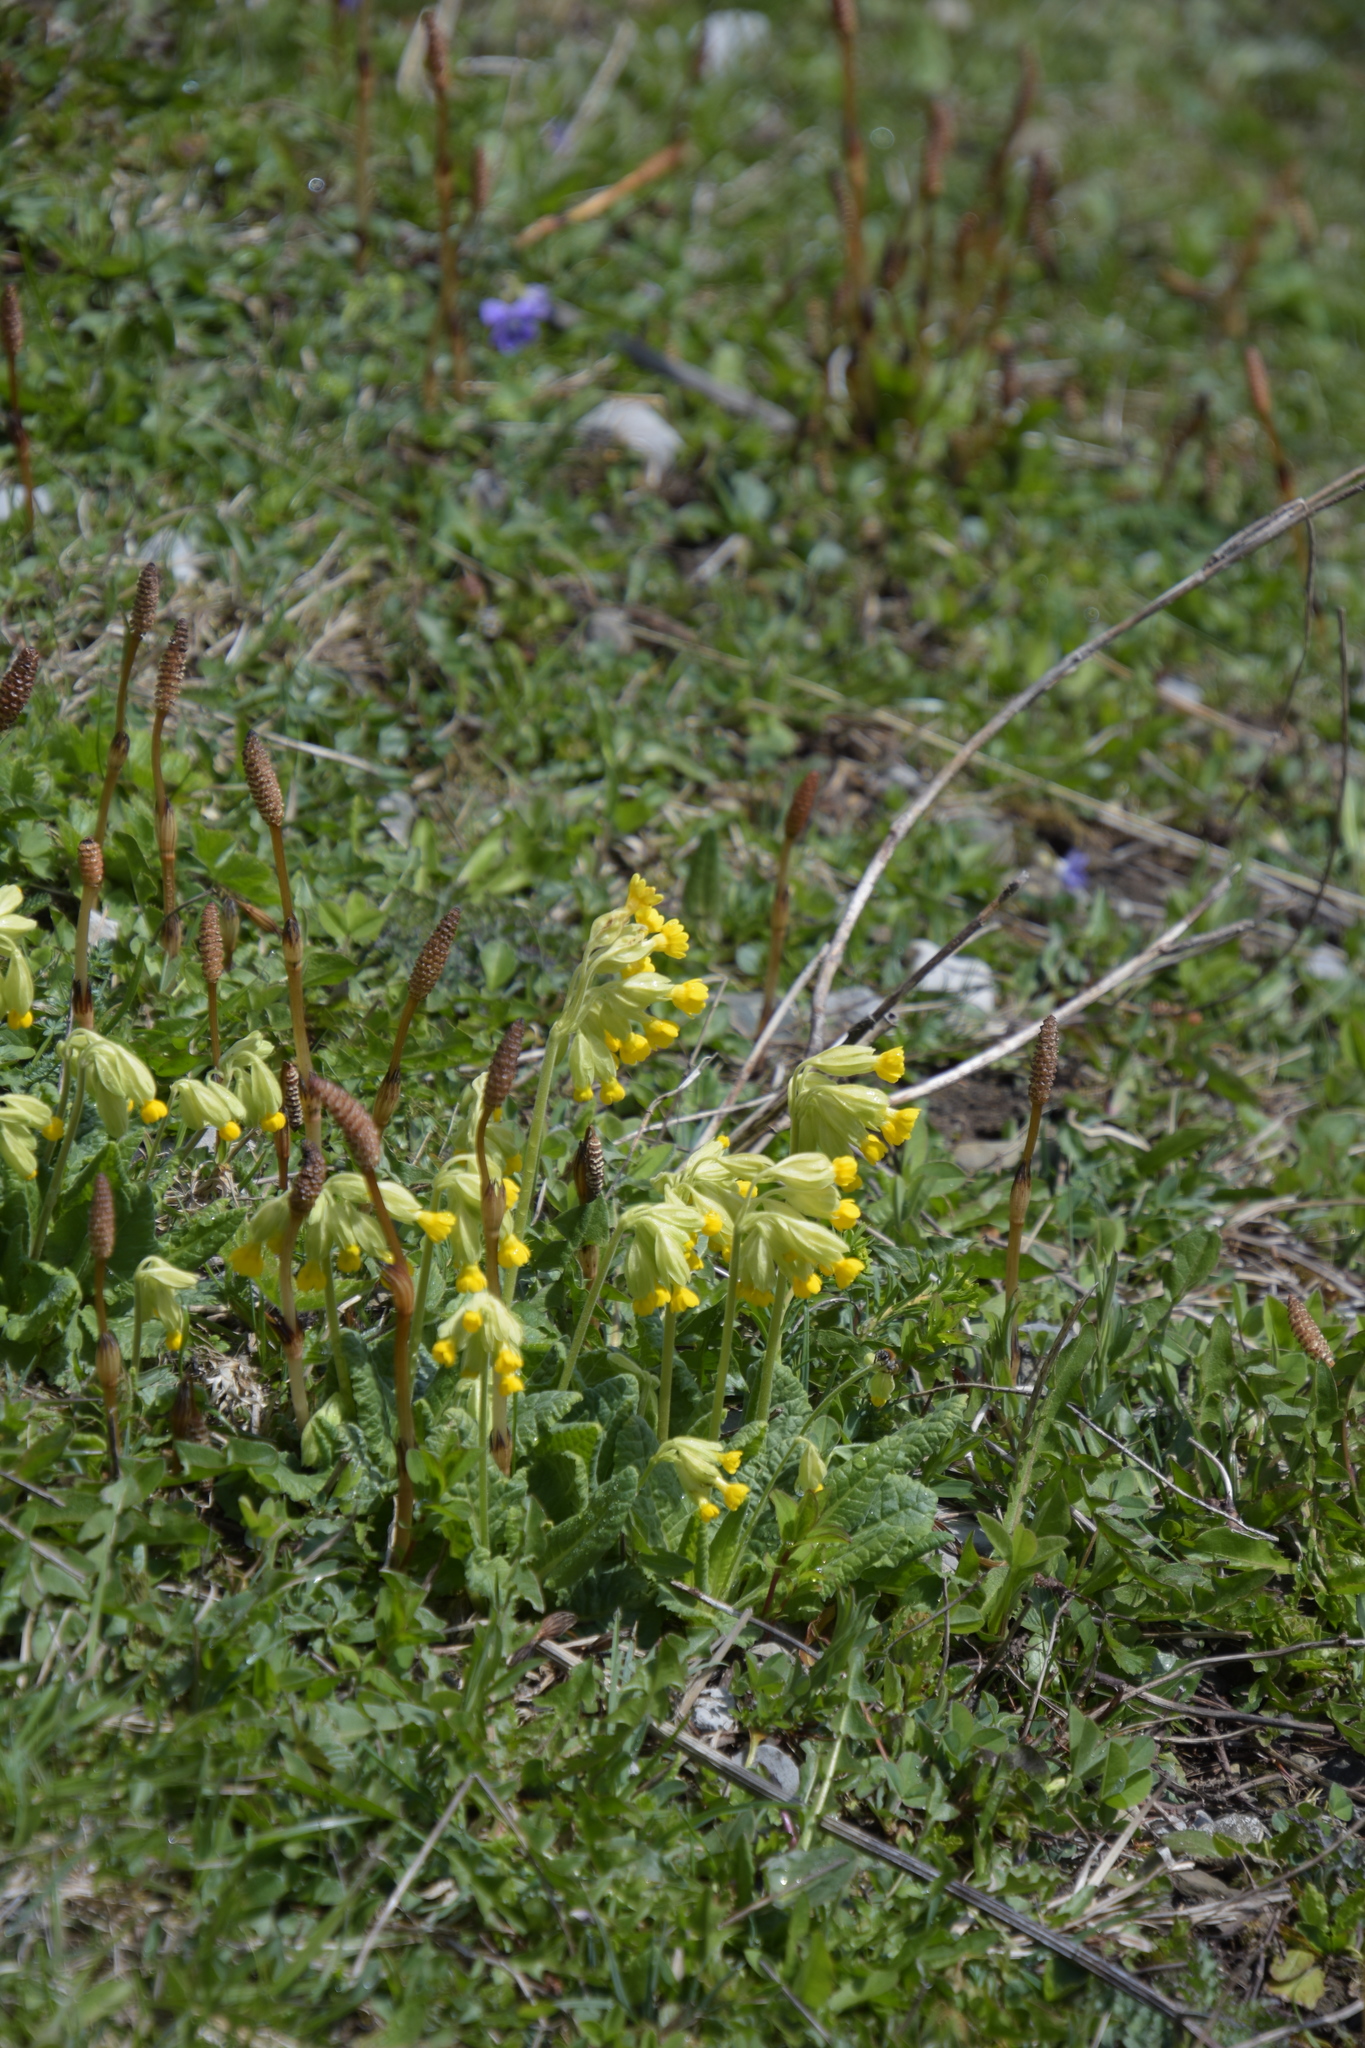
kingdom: Plantae
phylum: Tracheophyta
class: Magnoliopsida
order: Ericales
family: Primulaceae
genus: Primula
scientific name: Primula veris
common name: Cowslip
